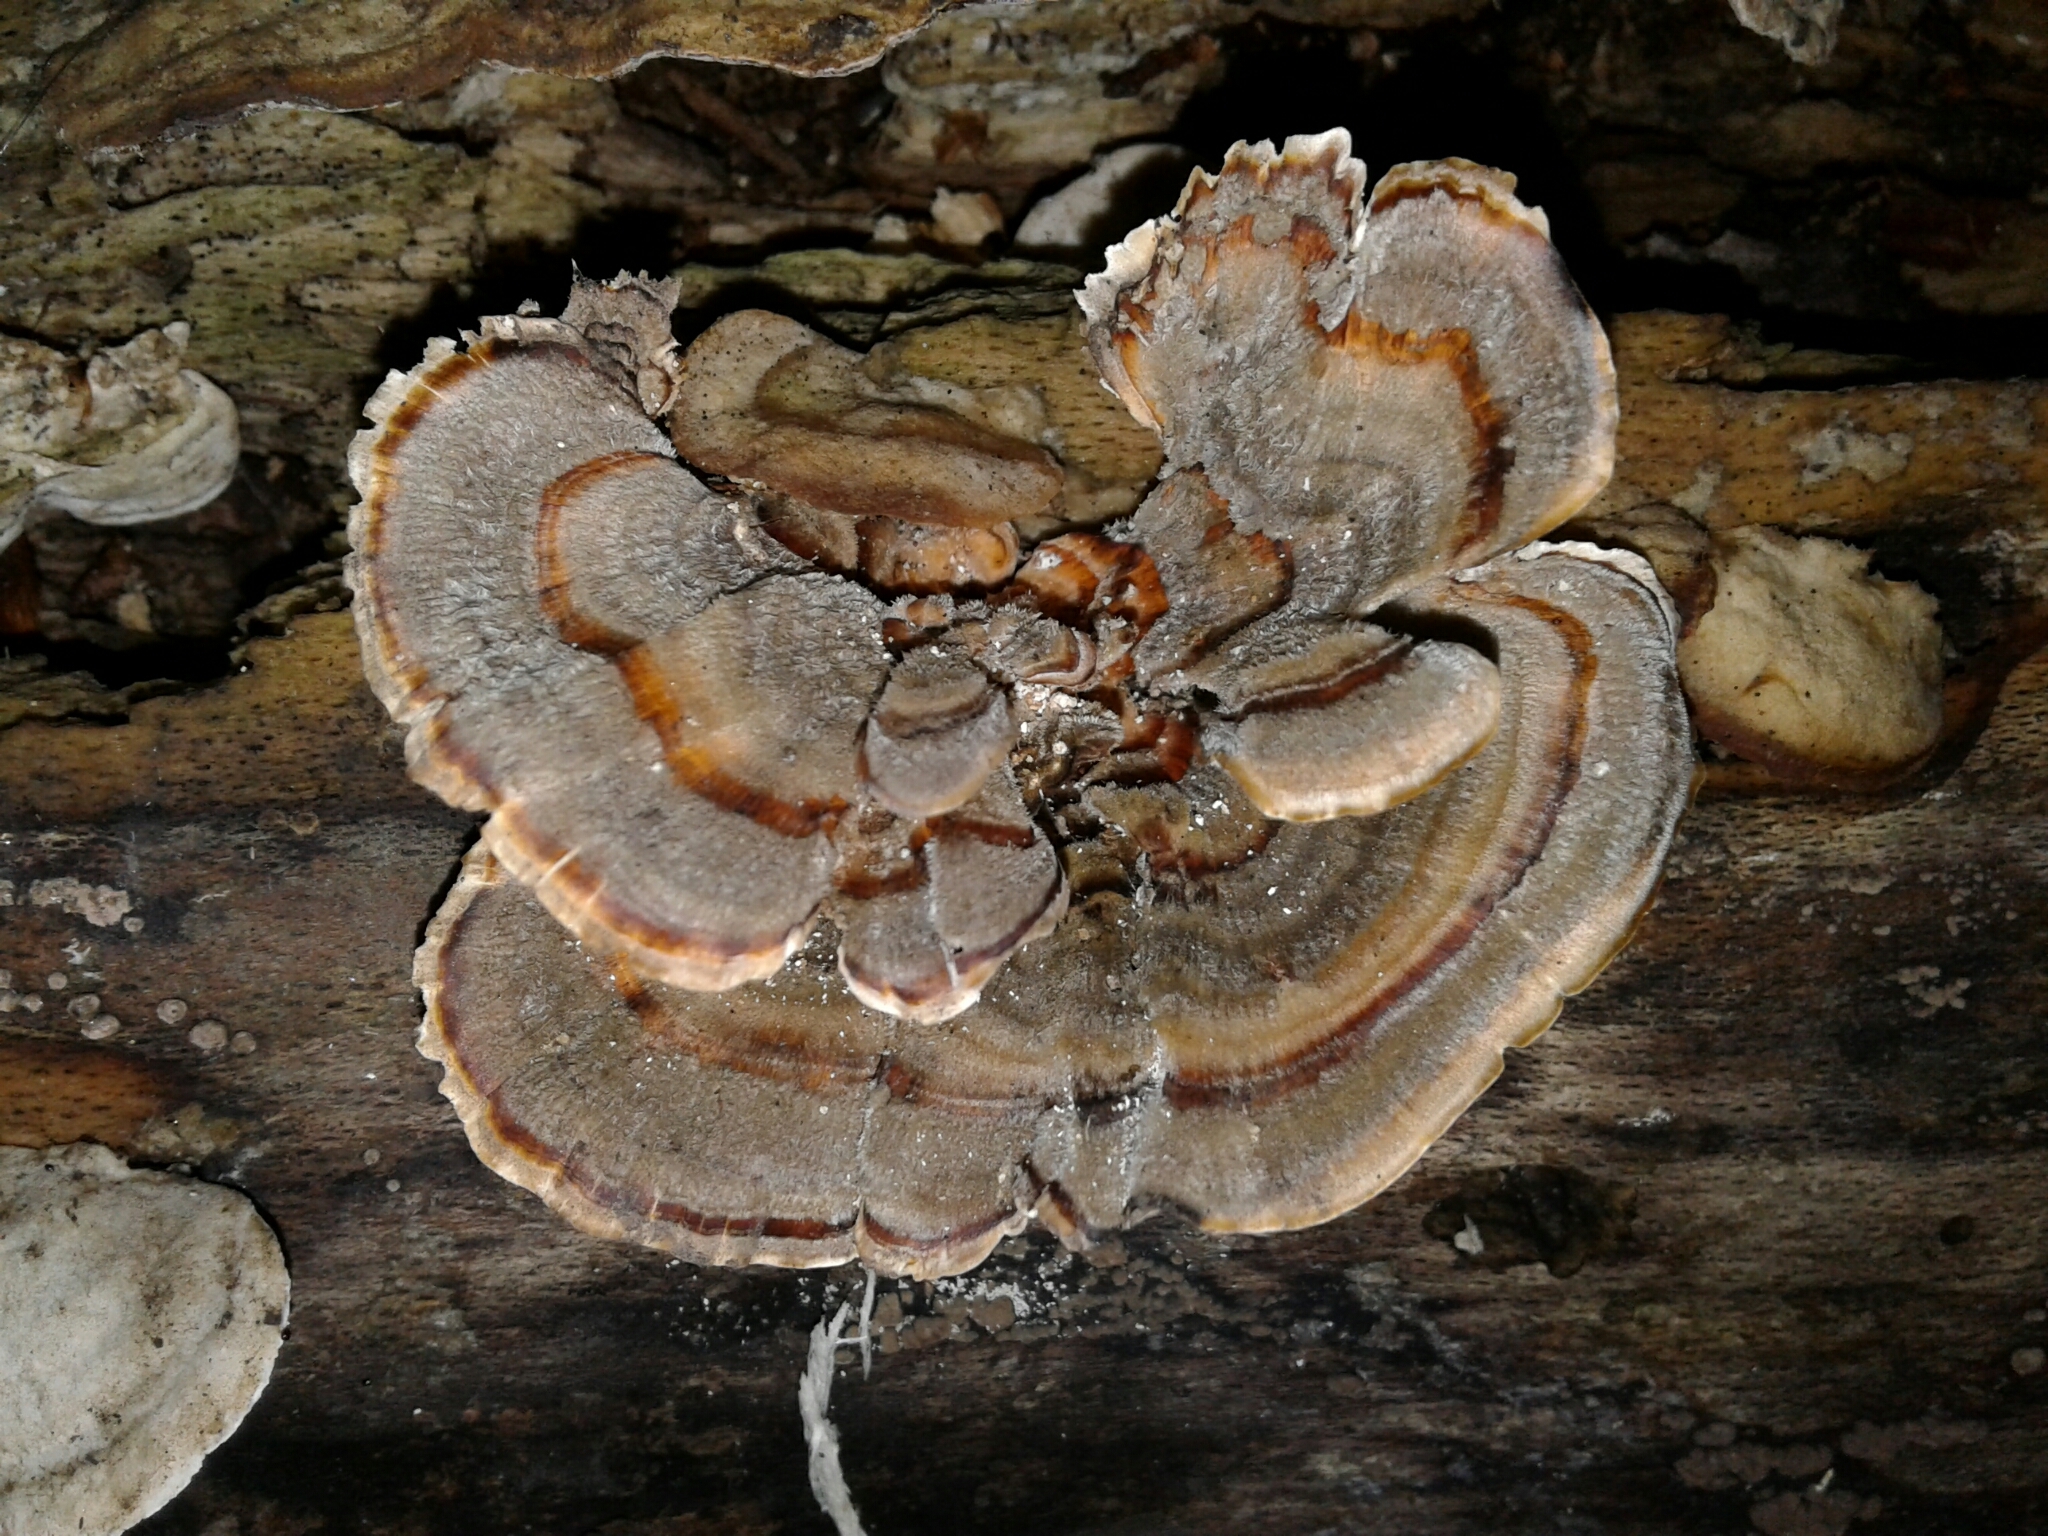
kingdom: Fungi
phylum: Basidiomycota
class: Agaricomycetes
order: Polyporales
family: Polyporaceae
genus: Trametes
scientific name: Trametes versicolor
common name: Turkeytail
